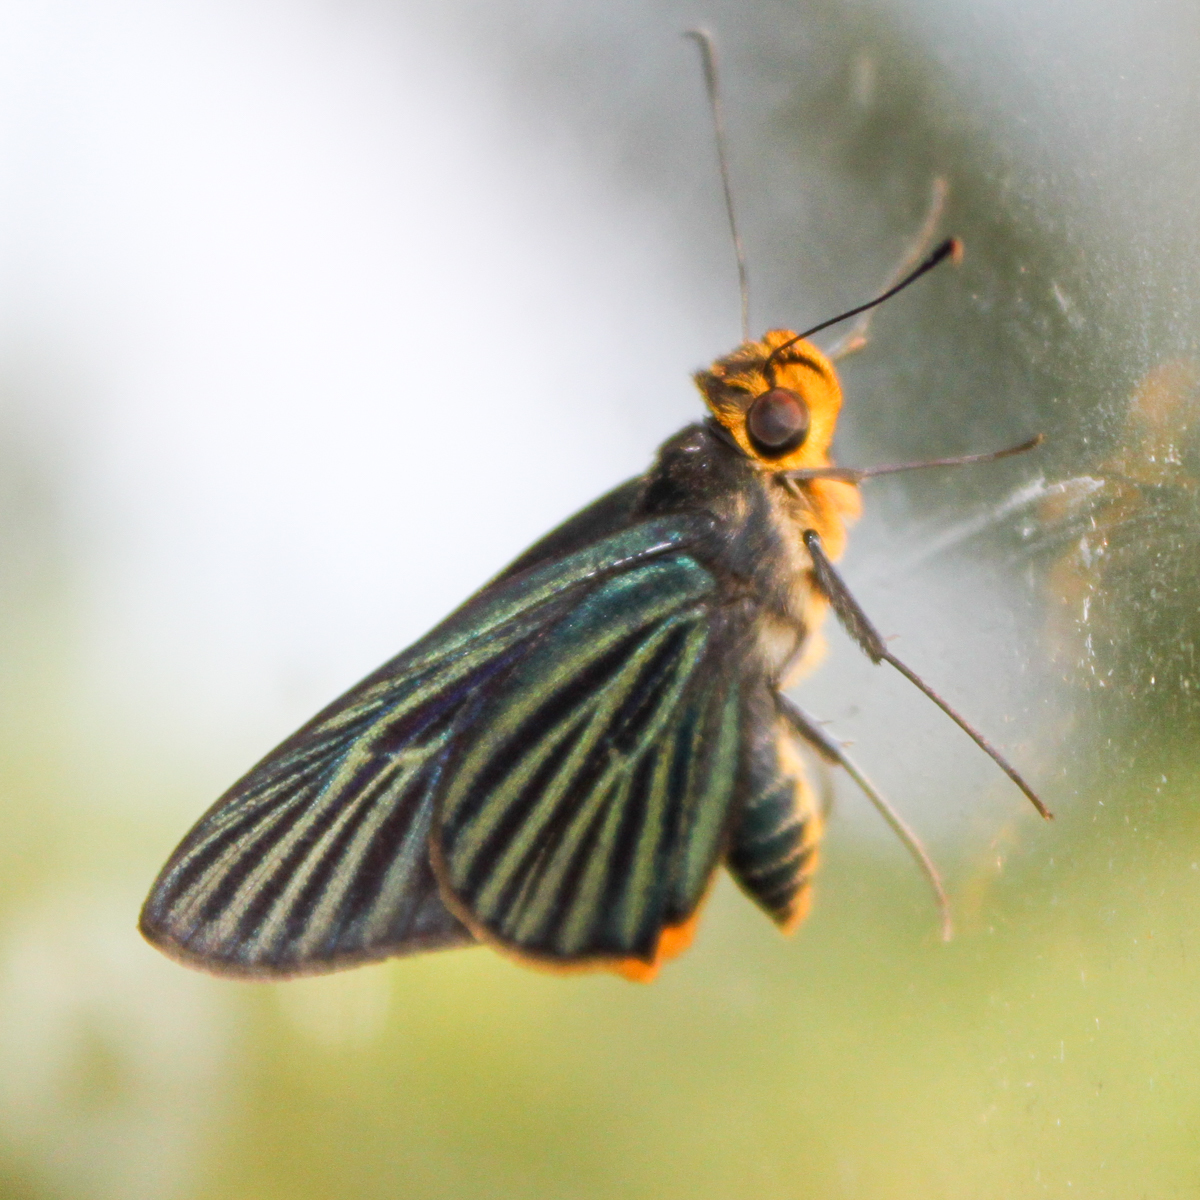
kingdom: Animalia
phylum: Arthropoda
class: Insecta
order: Lepidoptera
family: Hesperiidae
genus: Pirdana
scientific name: Pirdana hyela
